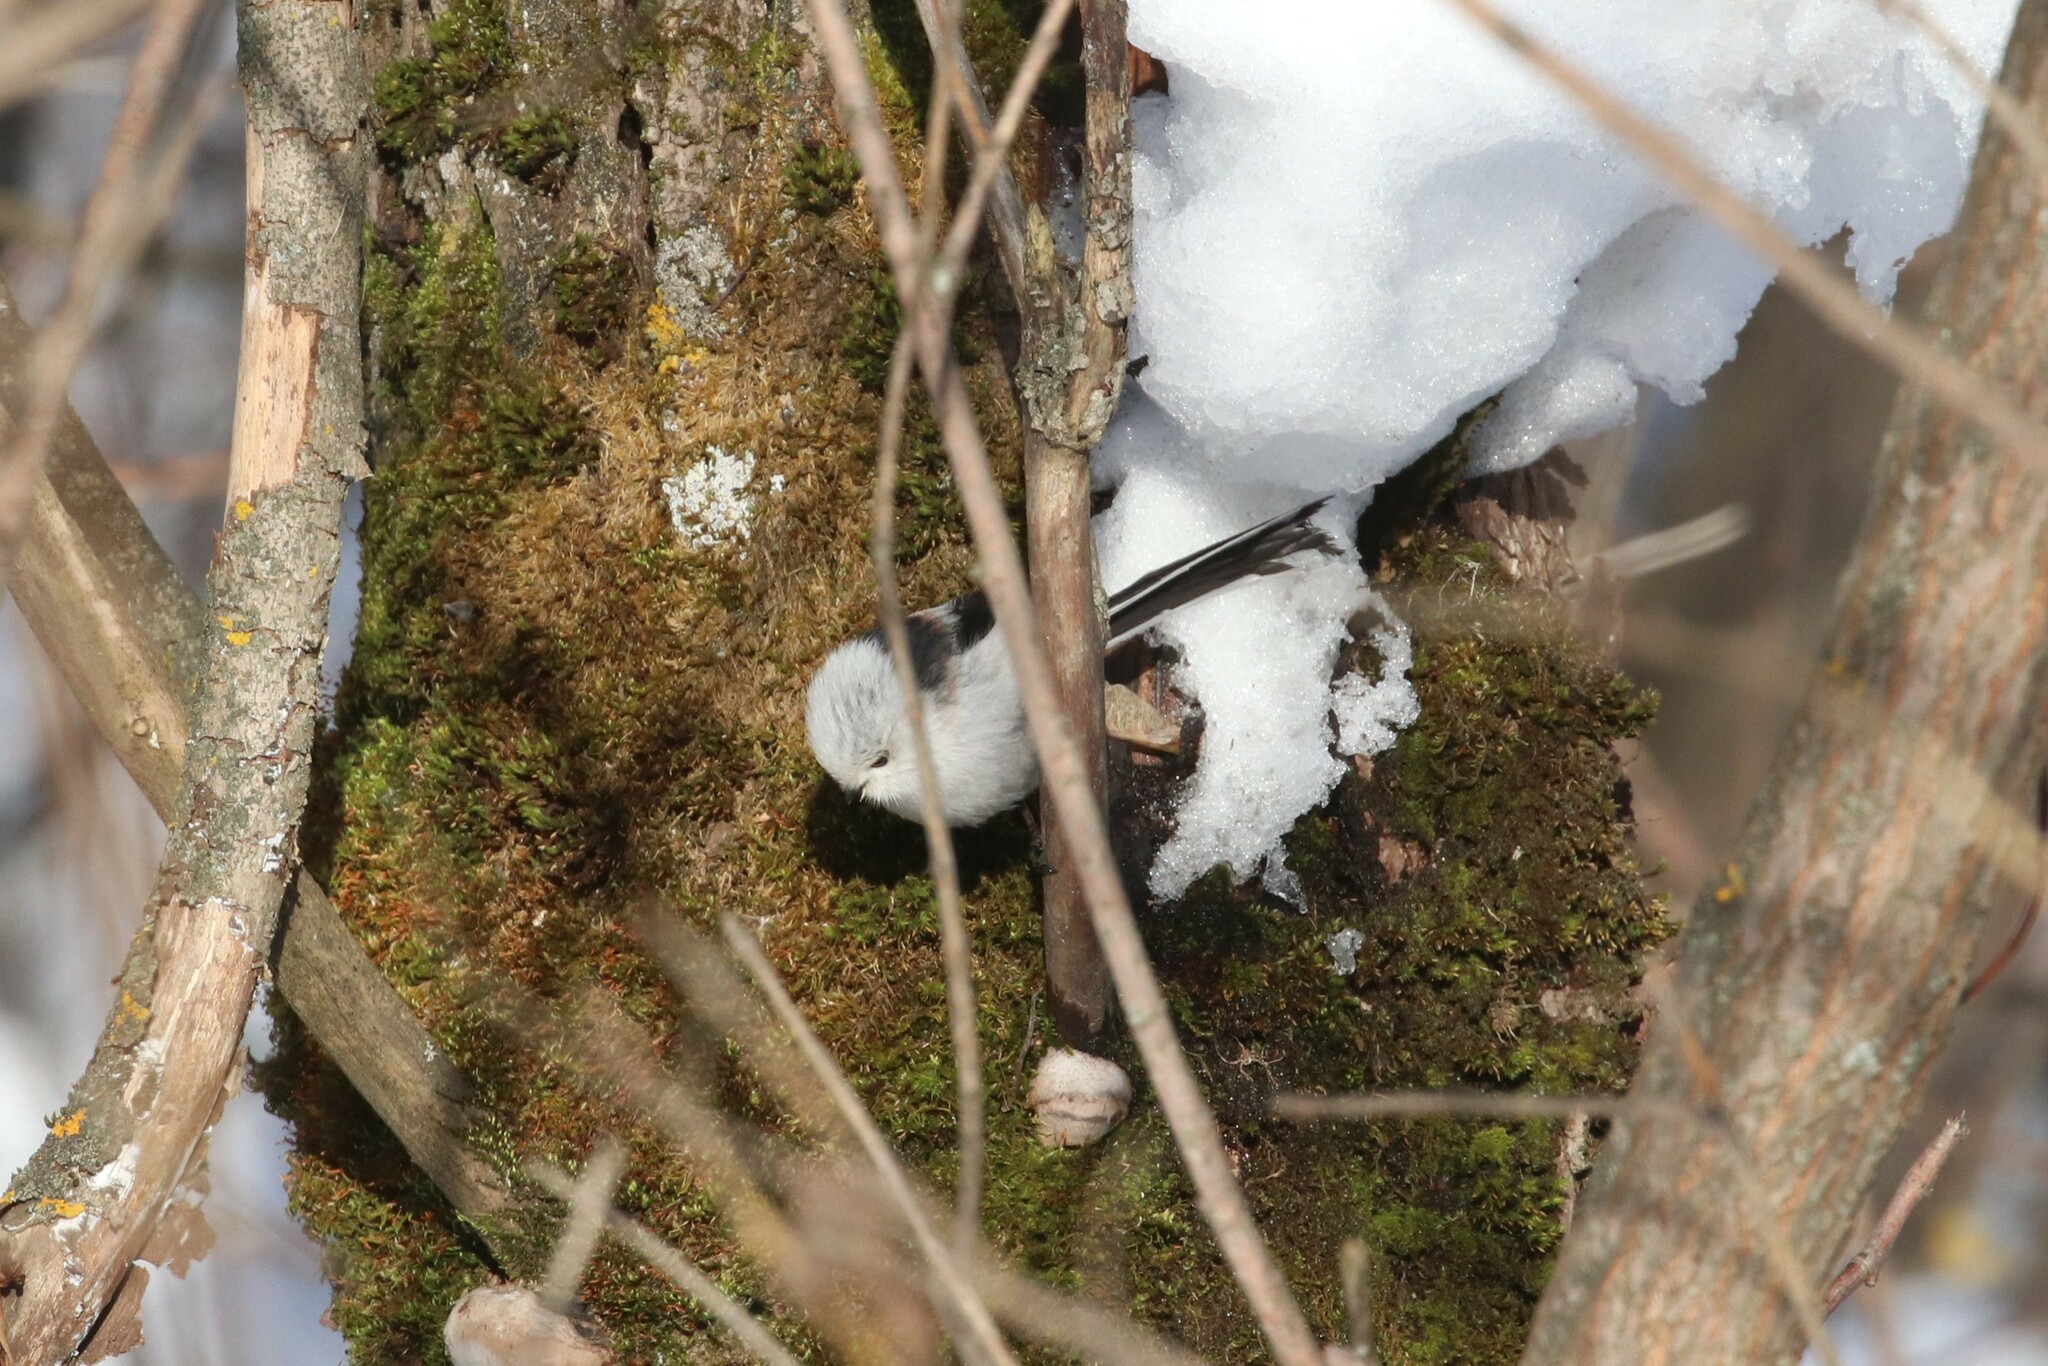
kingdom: Animalia
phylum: Chordata
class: Aves
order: Passeriformes
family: Aegithalidae
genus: Aegithalos
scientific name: Aegithalos caudatus
